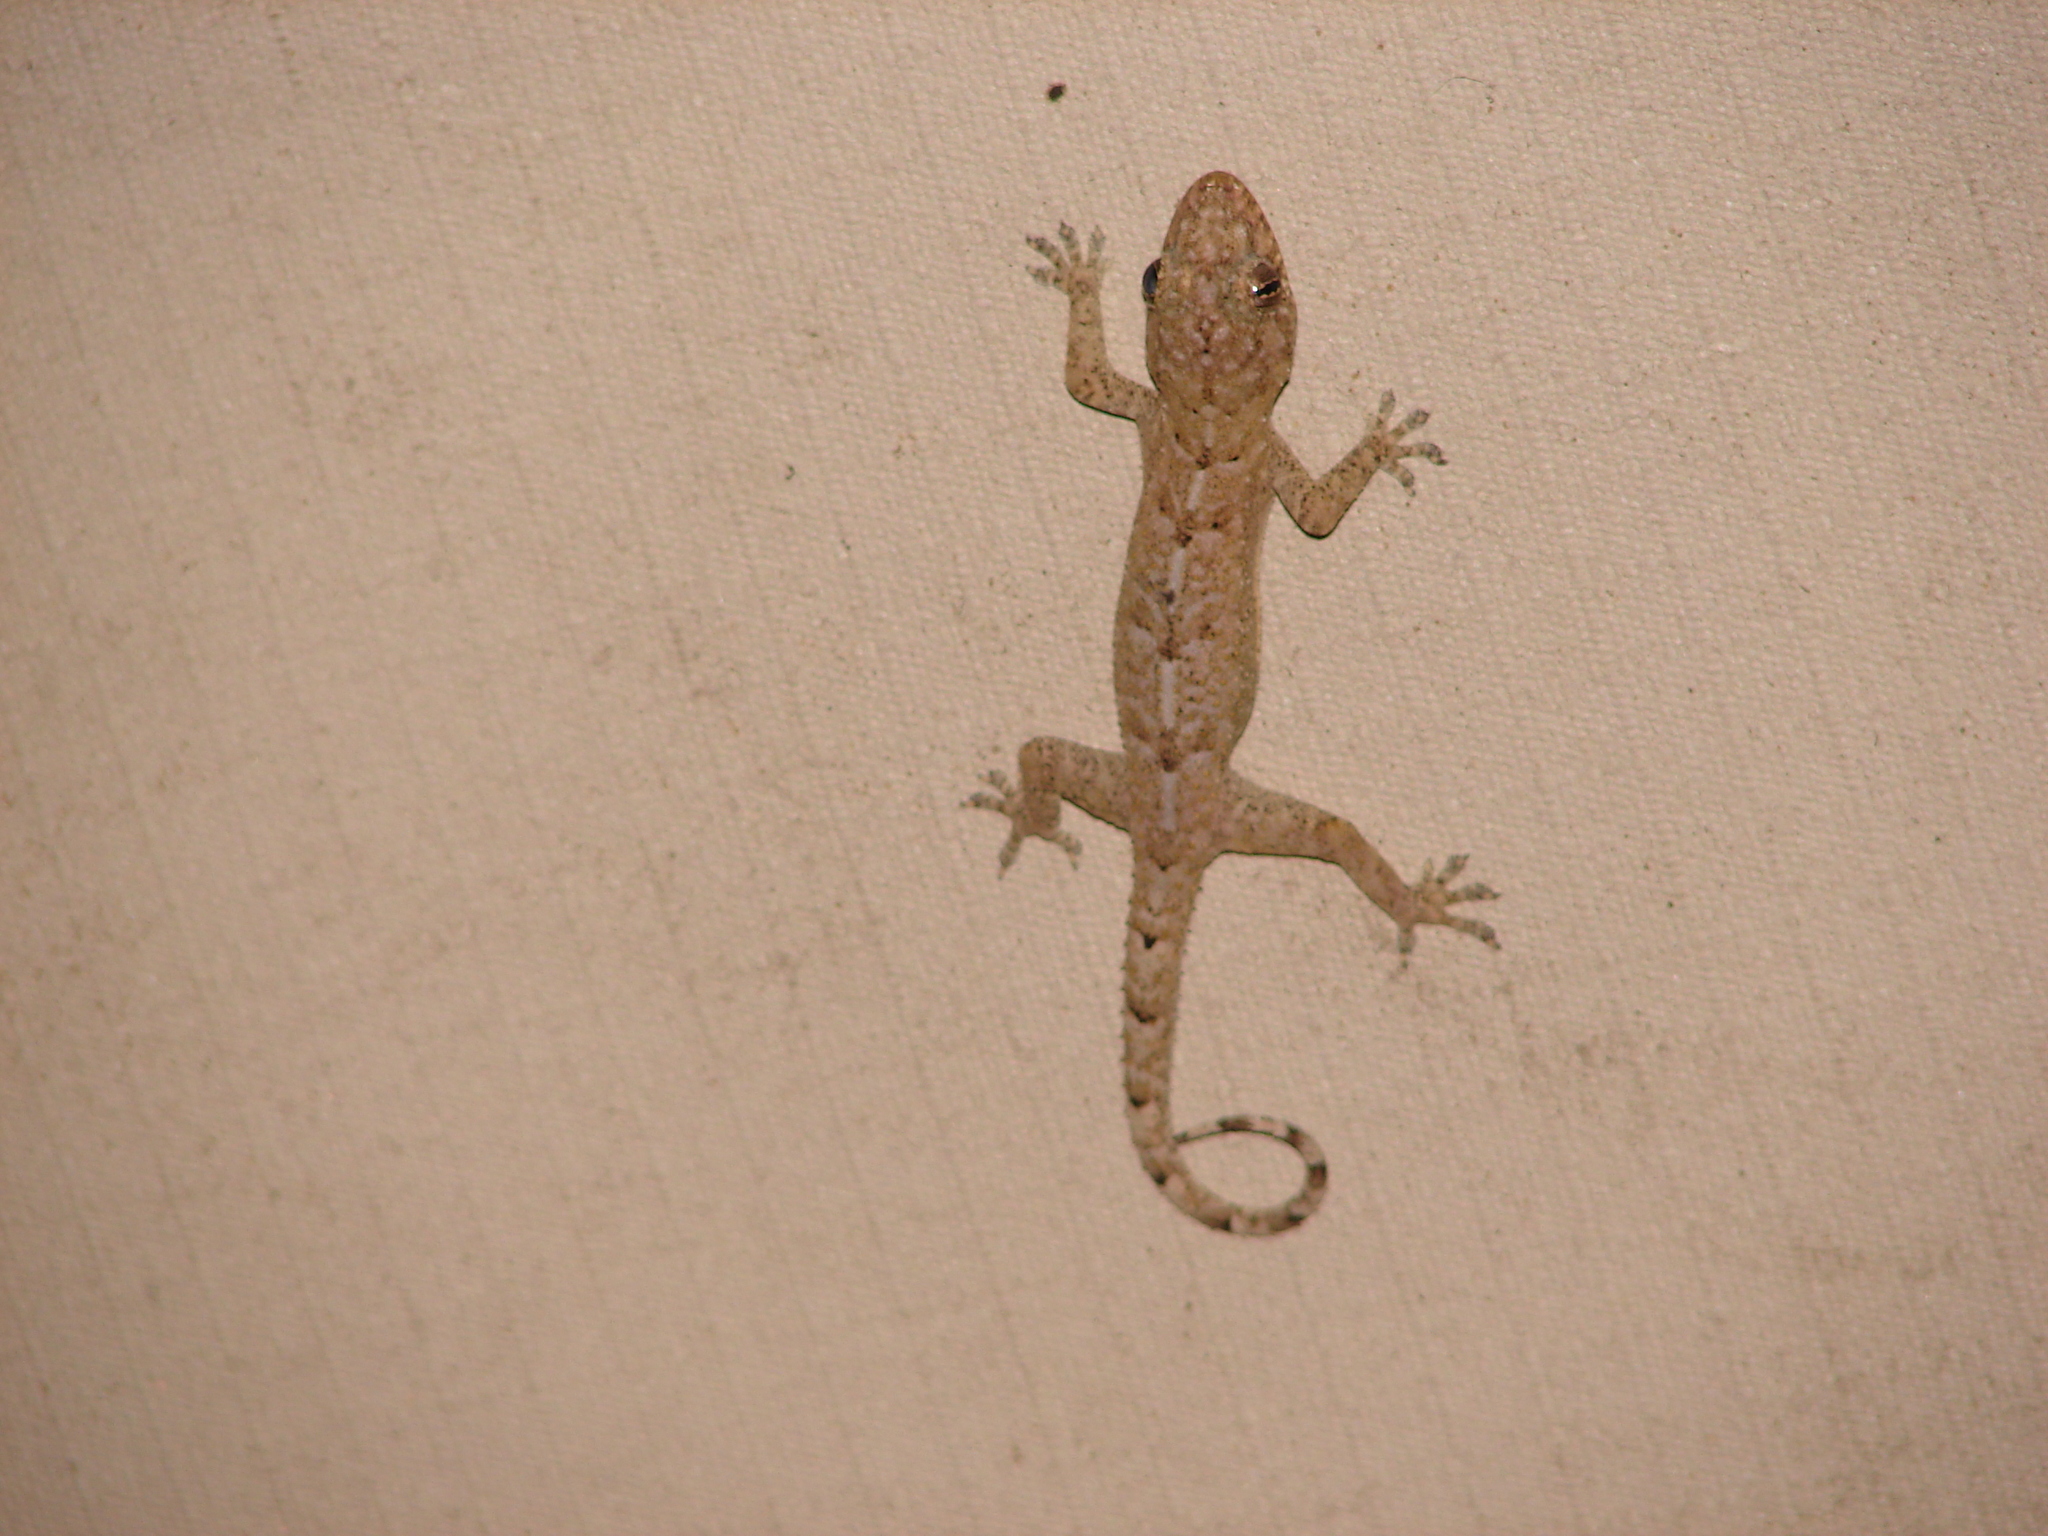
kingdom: Animalia
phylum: Chordata
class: Squamata
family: Gekkonidae
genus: Hemidactylus
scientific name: Hemidactylus mabouia
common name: House gecko
